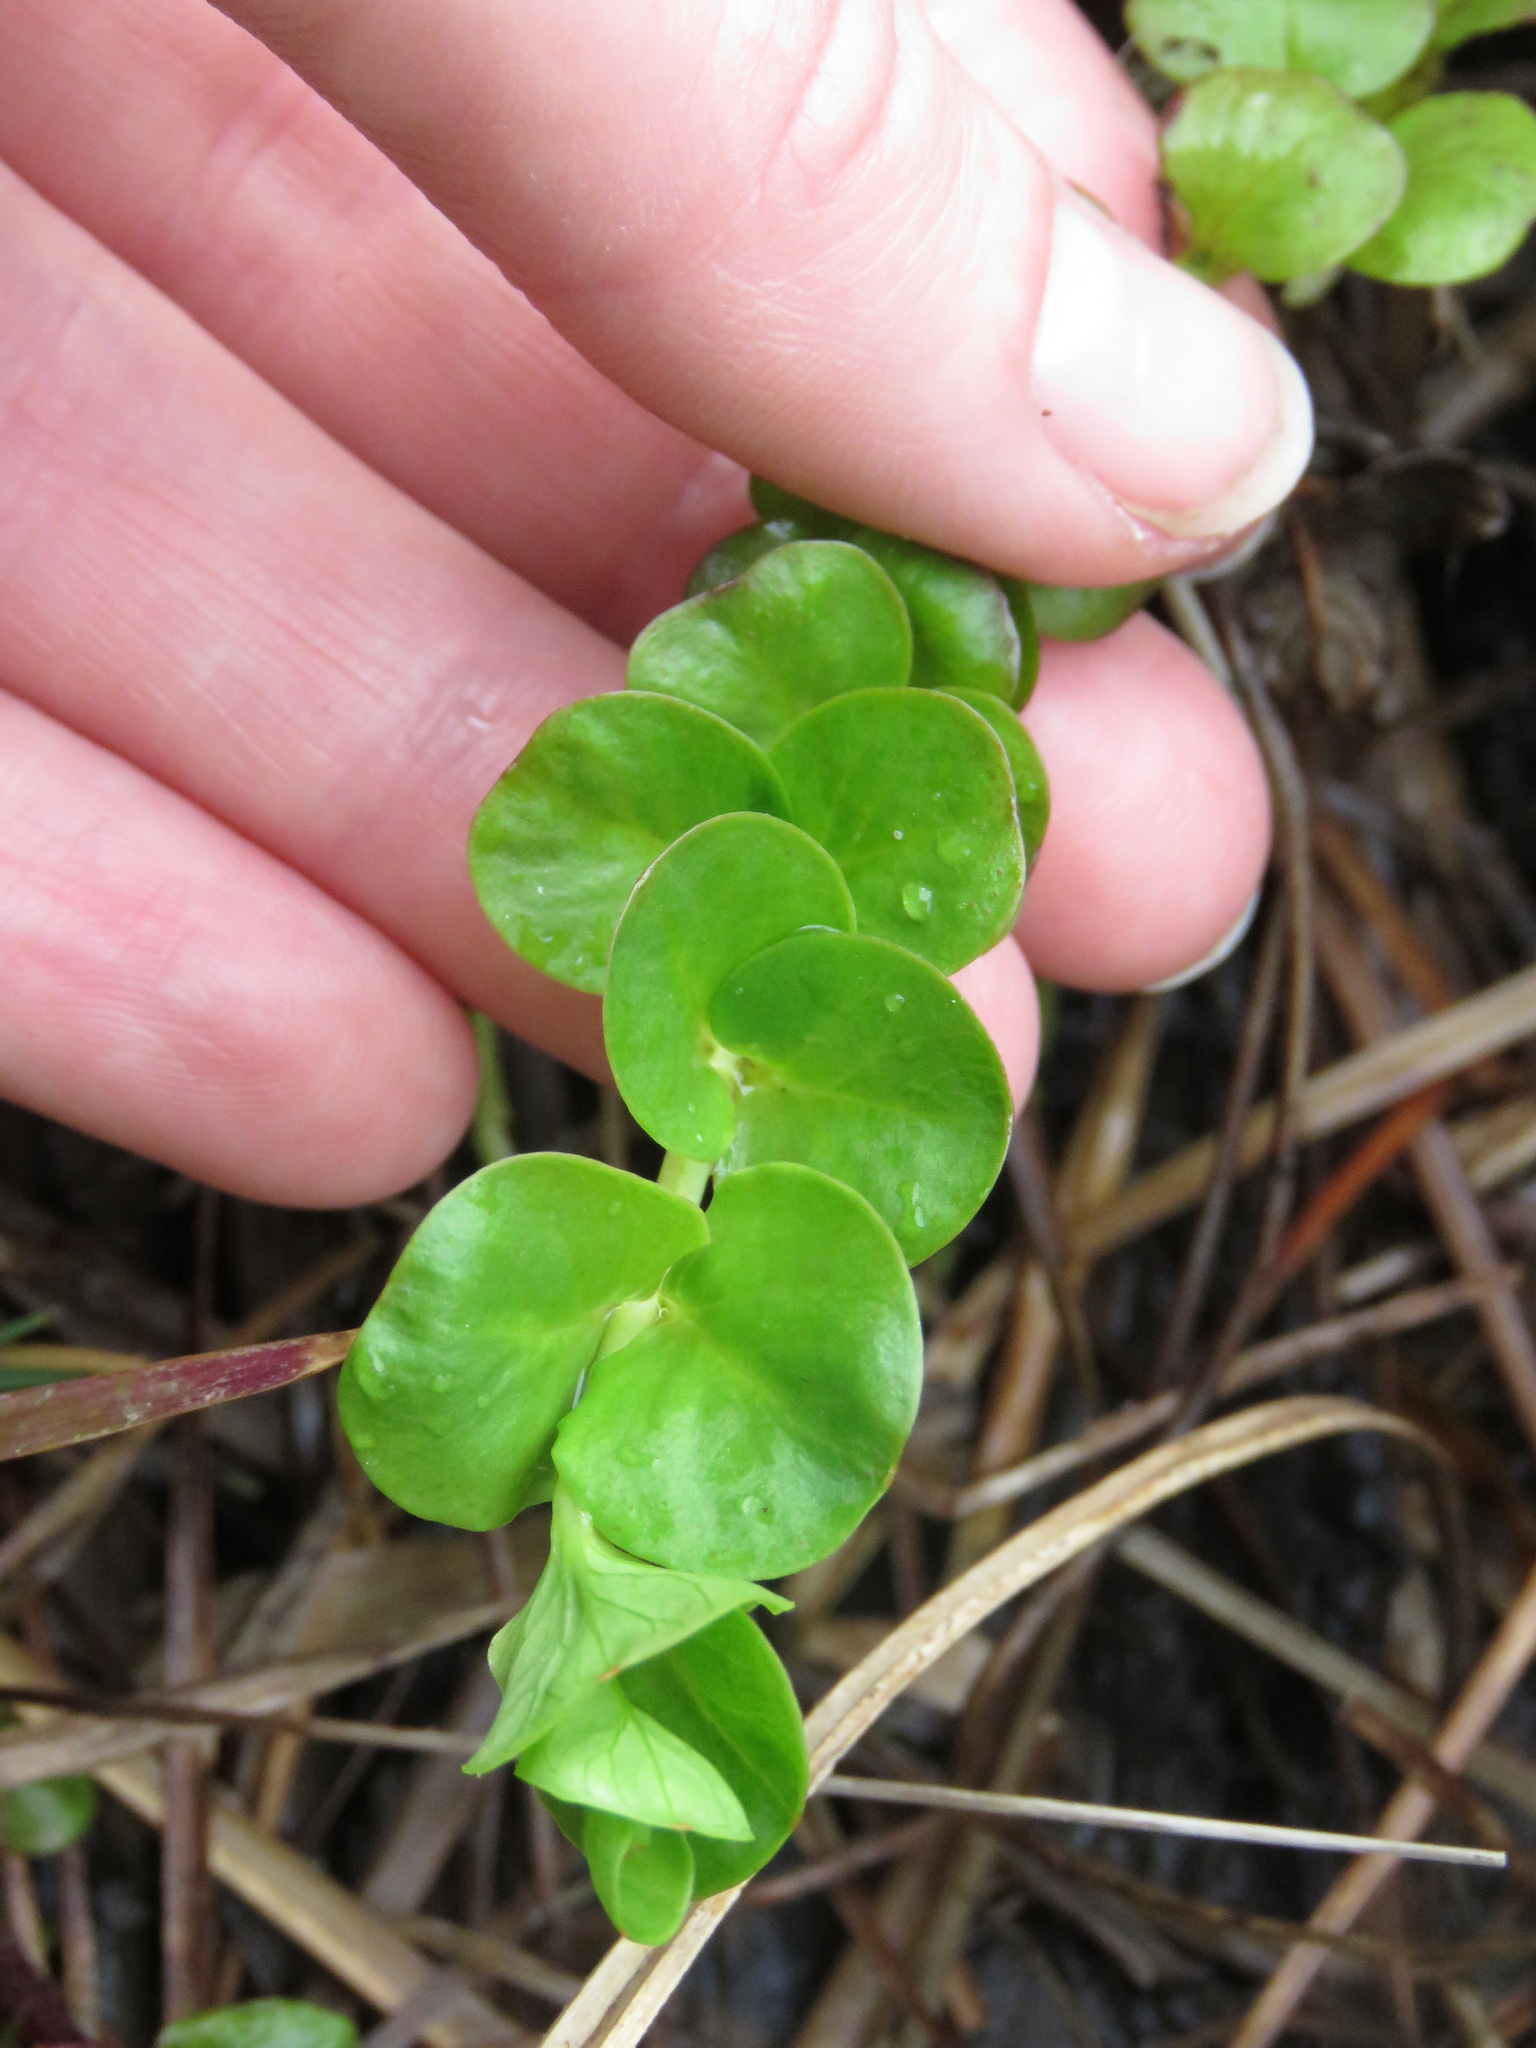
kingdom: Plantae
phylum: Tracheophyta
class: Magnoliopsida
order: Ericales
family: Primulaceae
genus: Lysimachia
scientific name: Lysimachia nummularia
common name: Moneywort
